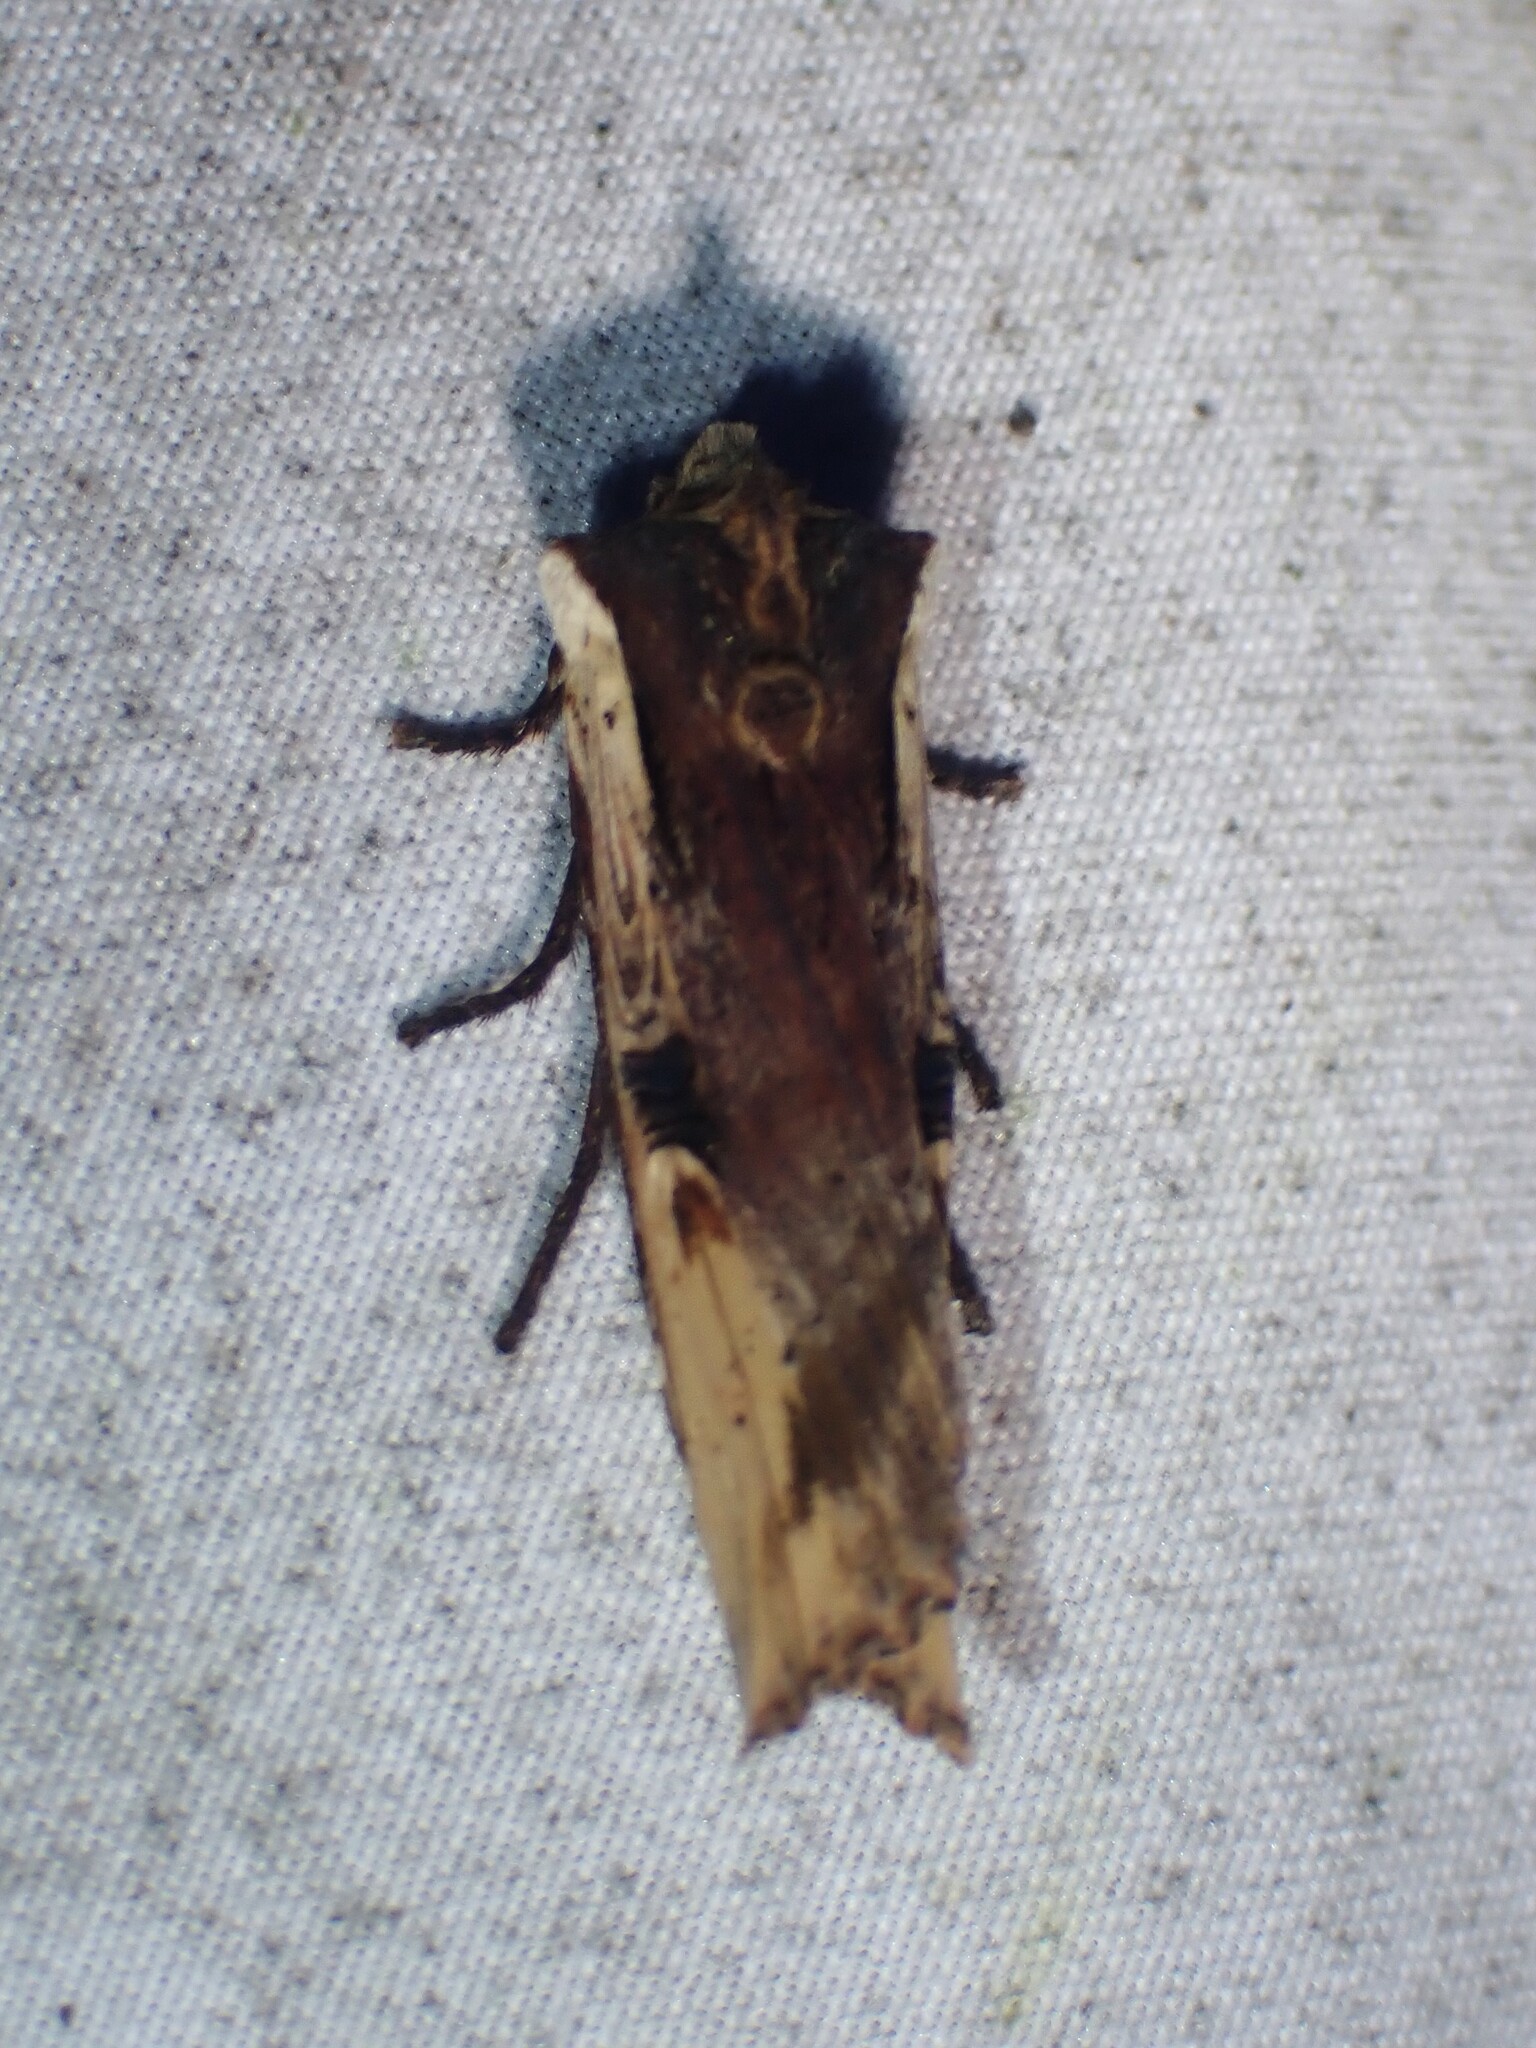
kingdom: Animalia
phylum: Arthropoda
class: Insecta
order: Lepidoptera
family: Noctuidae
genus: Xylena
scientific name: Xylena curvimacula
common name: Dot-and-dash swordgrass moth
